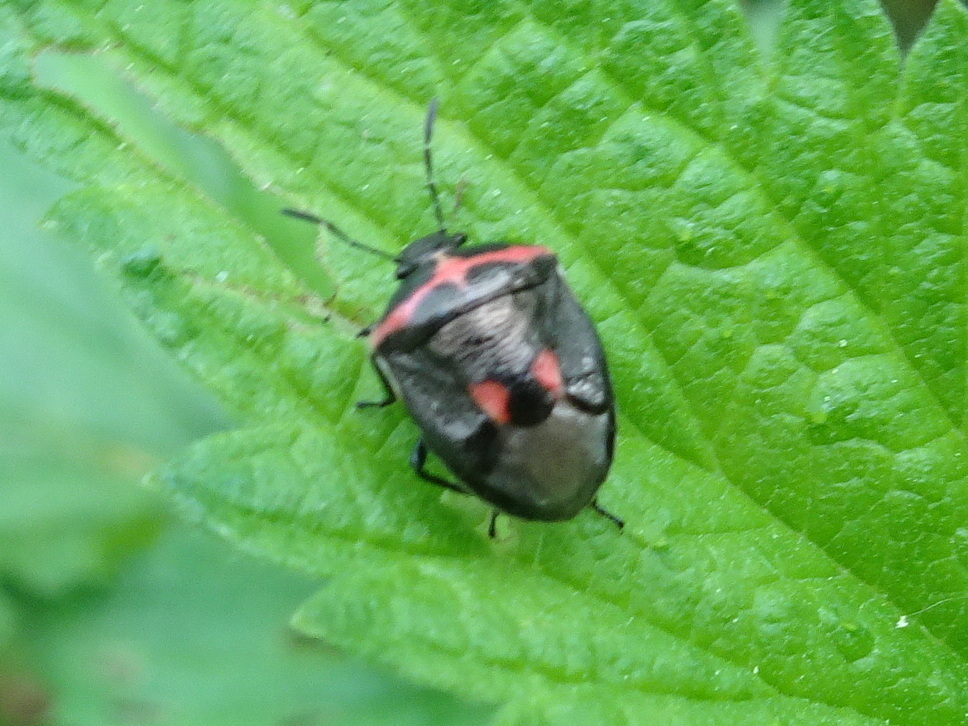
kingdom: Animalia
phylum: Arthropoda
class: Insecta
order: Hemiptera
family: Pentatomidae
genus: Cosmopepla
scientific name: Cosmopepla lintneriana
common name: Twice-stabbed stink bug
